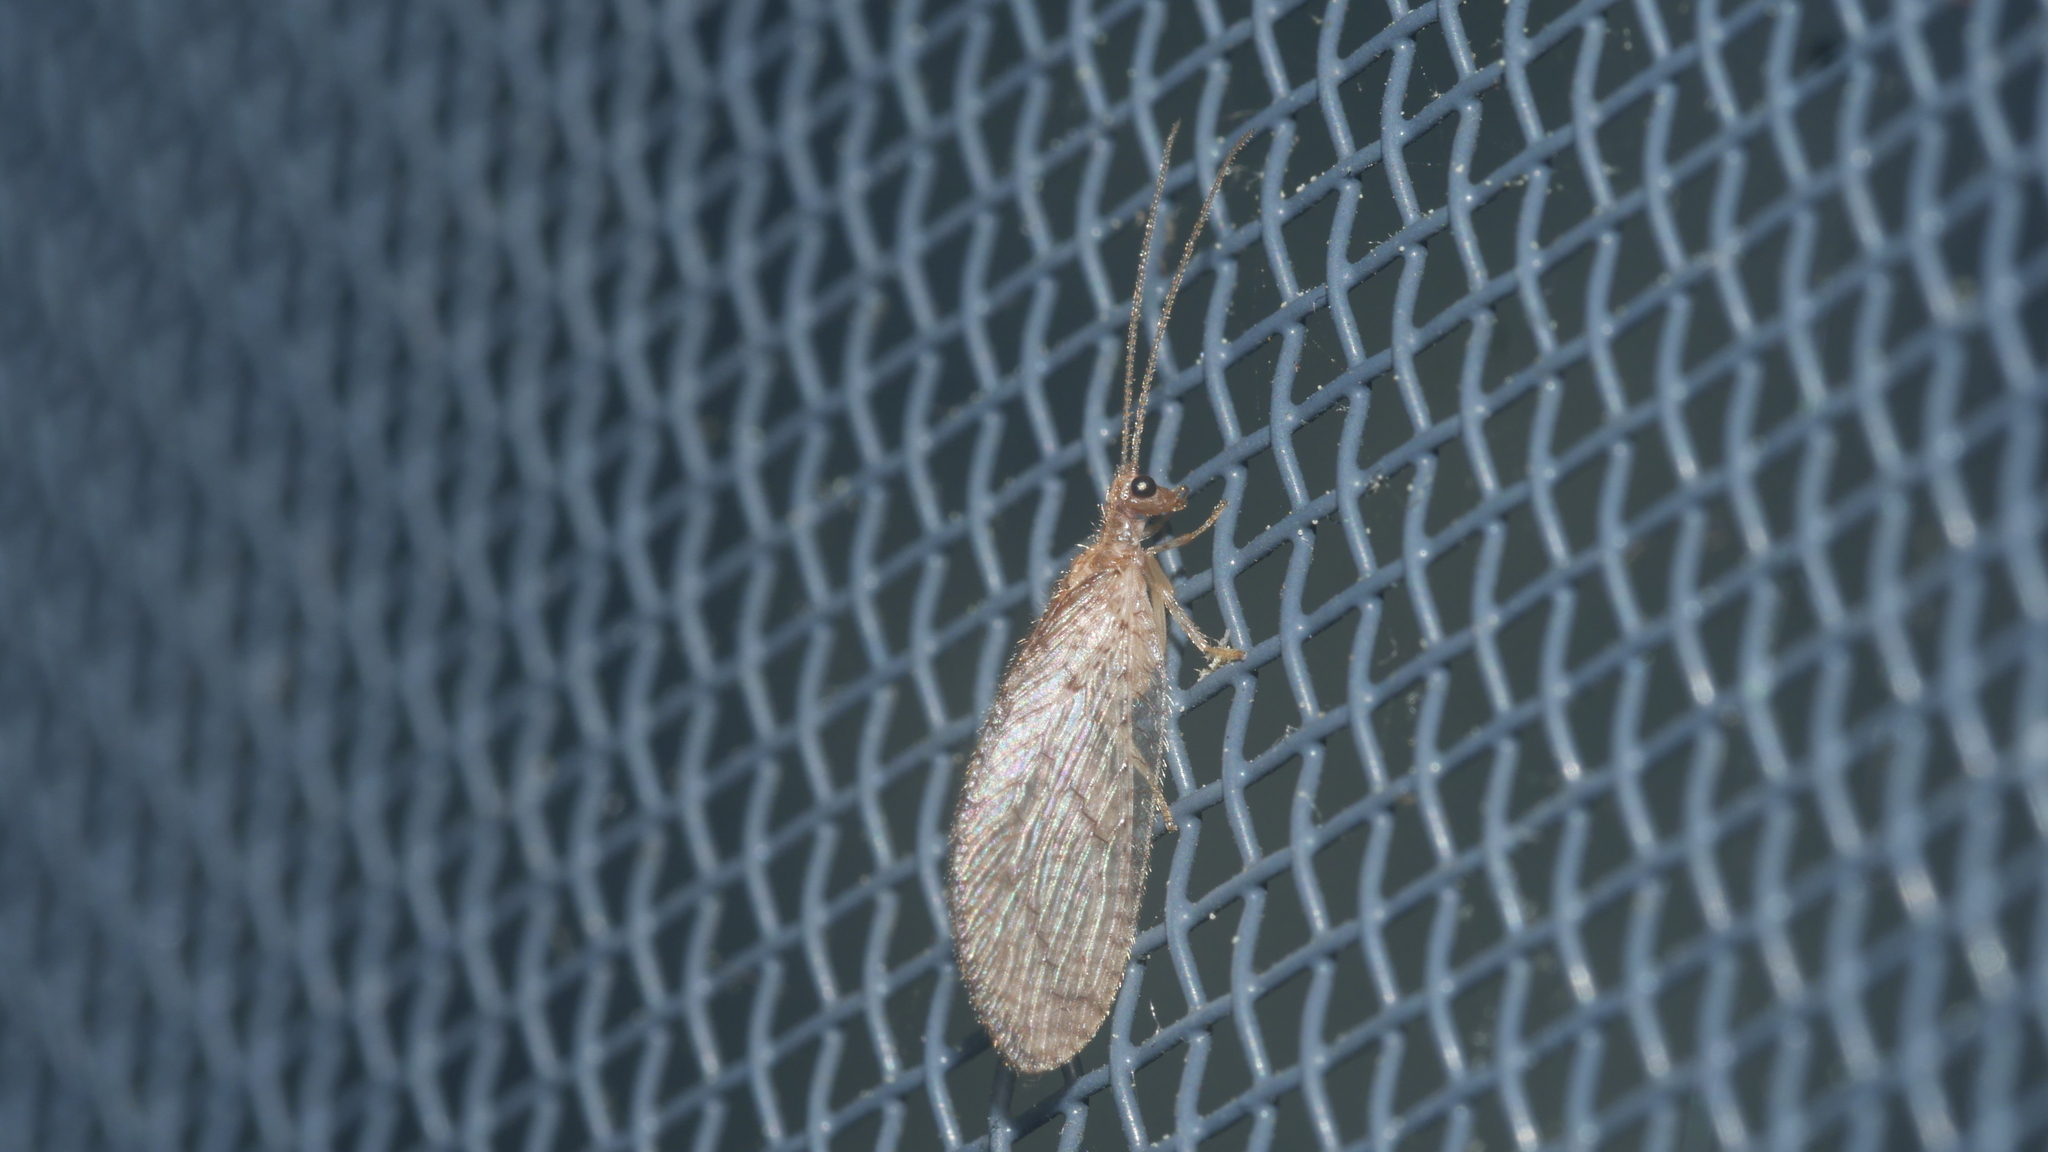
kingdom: Animalia
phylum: Arthropoda
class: Insecta
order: Neuroptera
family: Hemerobiidae
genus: Micromus
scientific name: Micromus posticus
